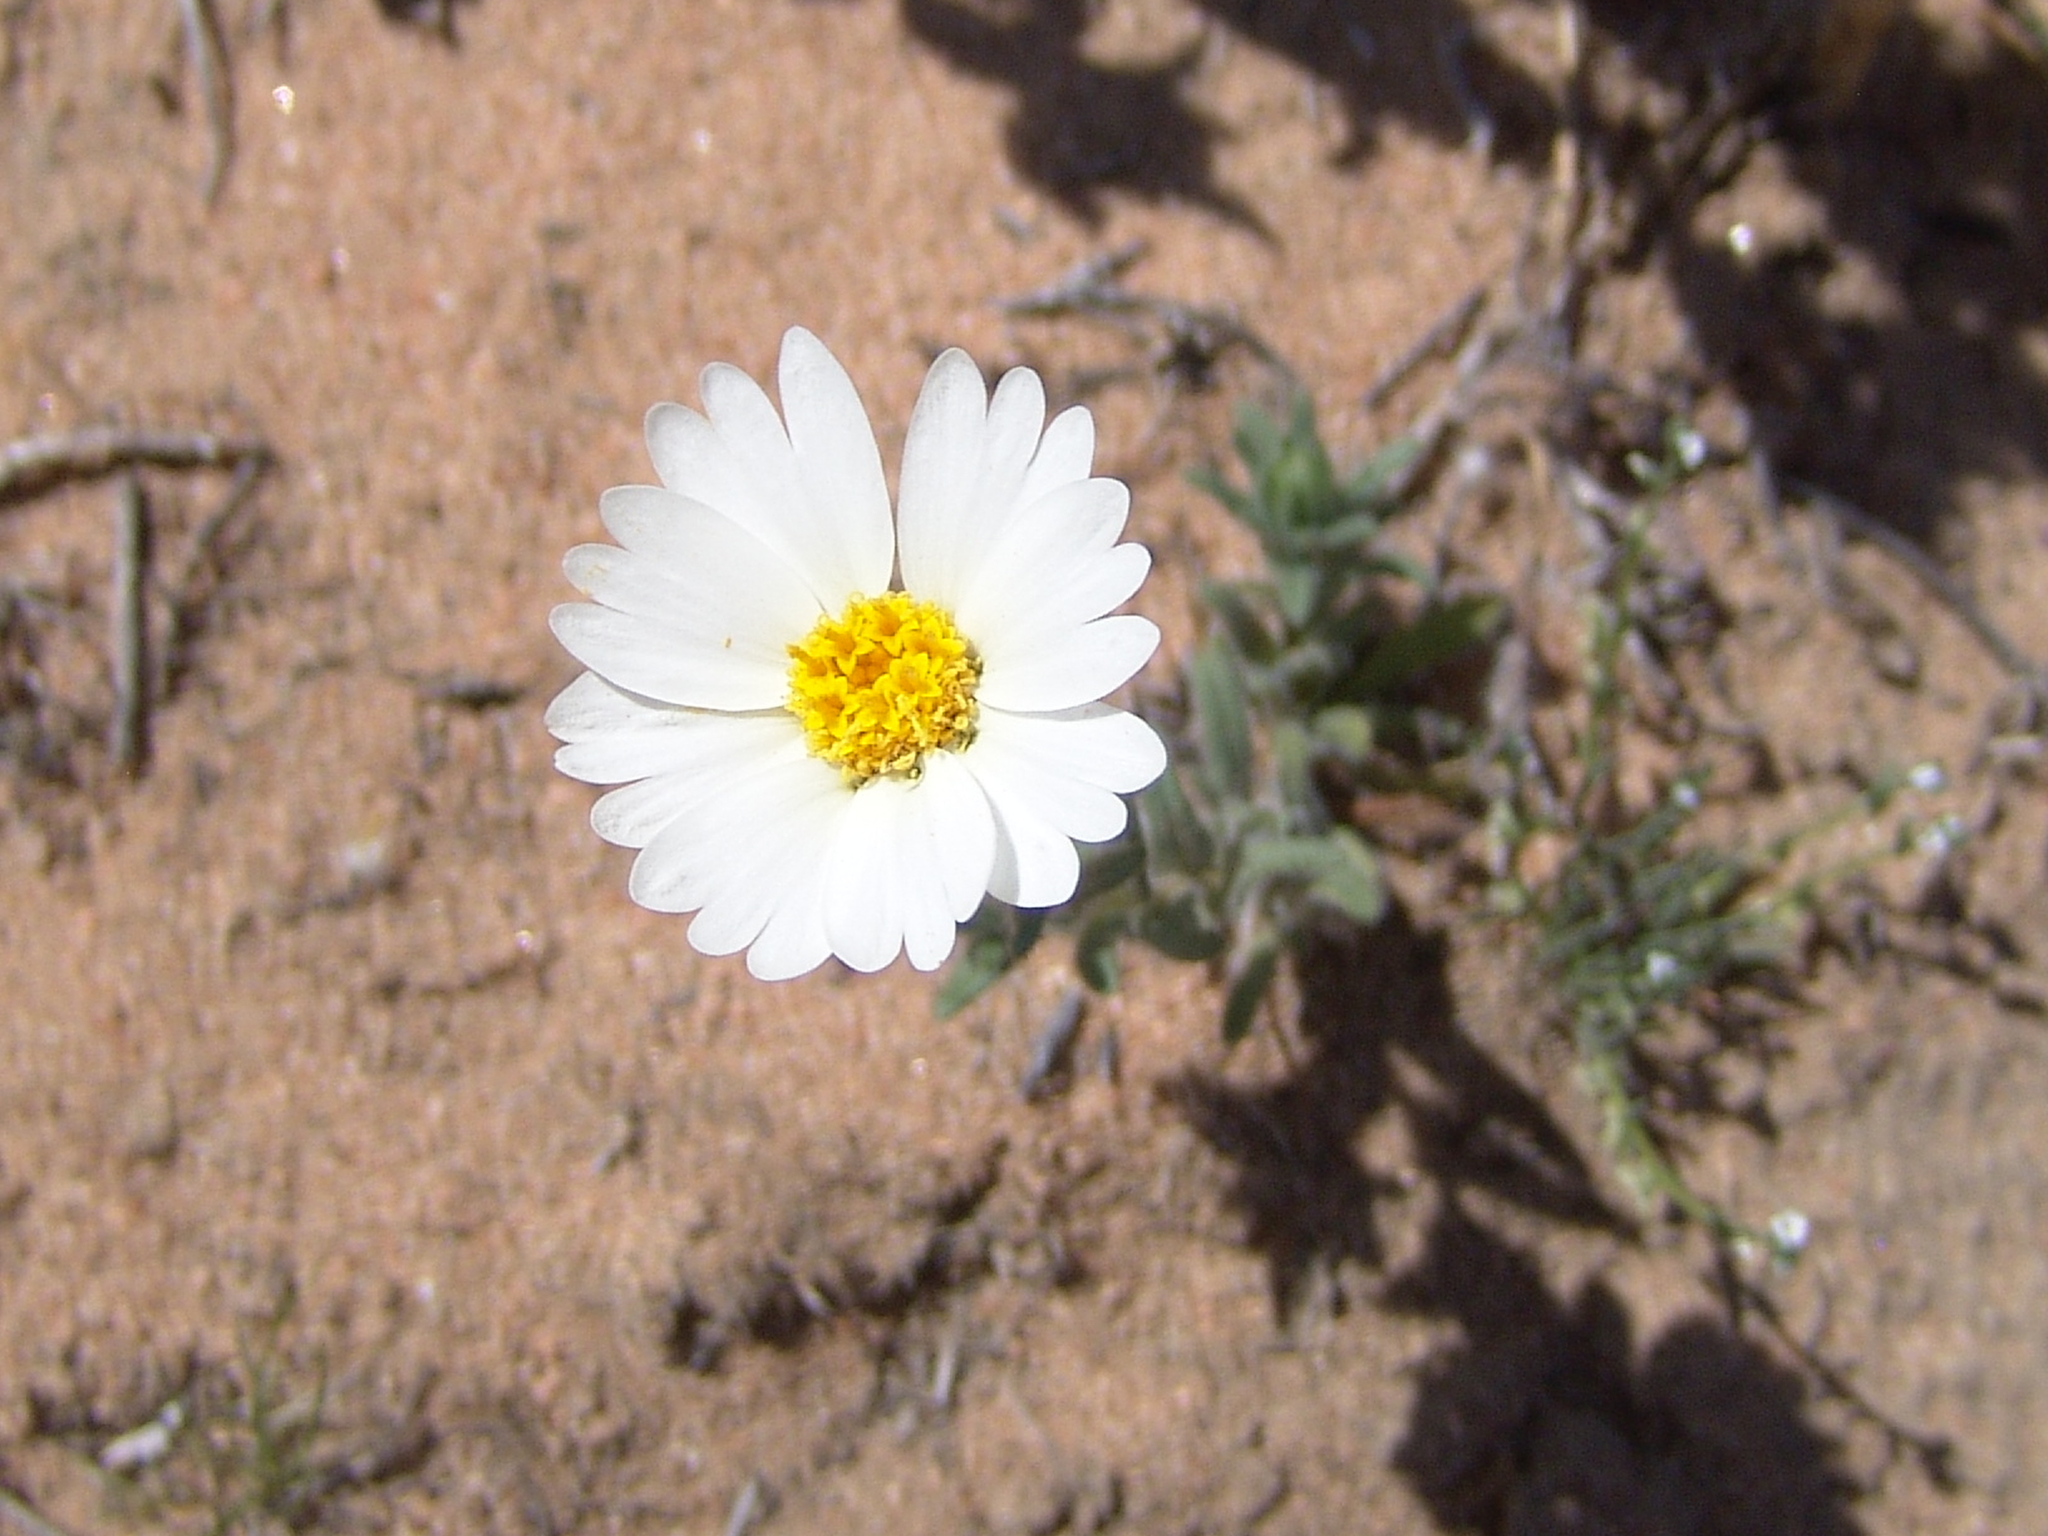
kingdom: Plantae
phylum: Tracheophyta
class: Magnoliopsida
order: Asterales
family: Asteraceae
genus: Layia
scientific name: Layia glandulosa
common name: White layia
